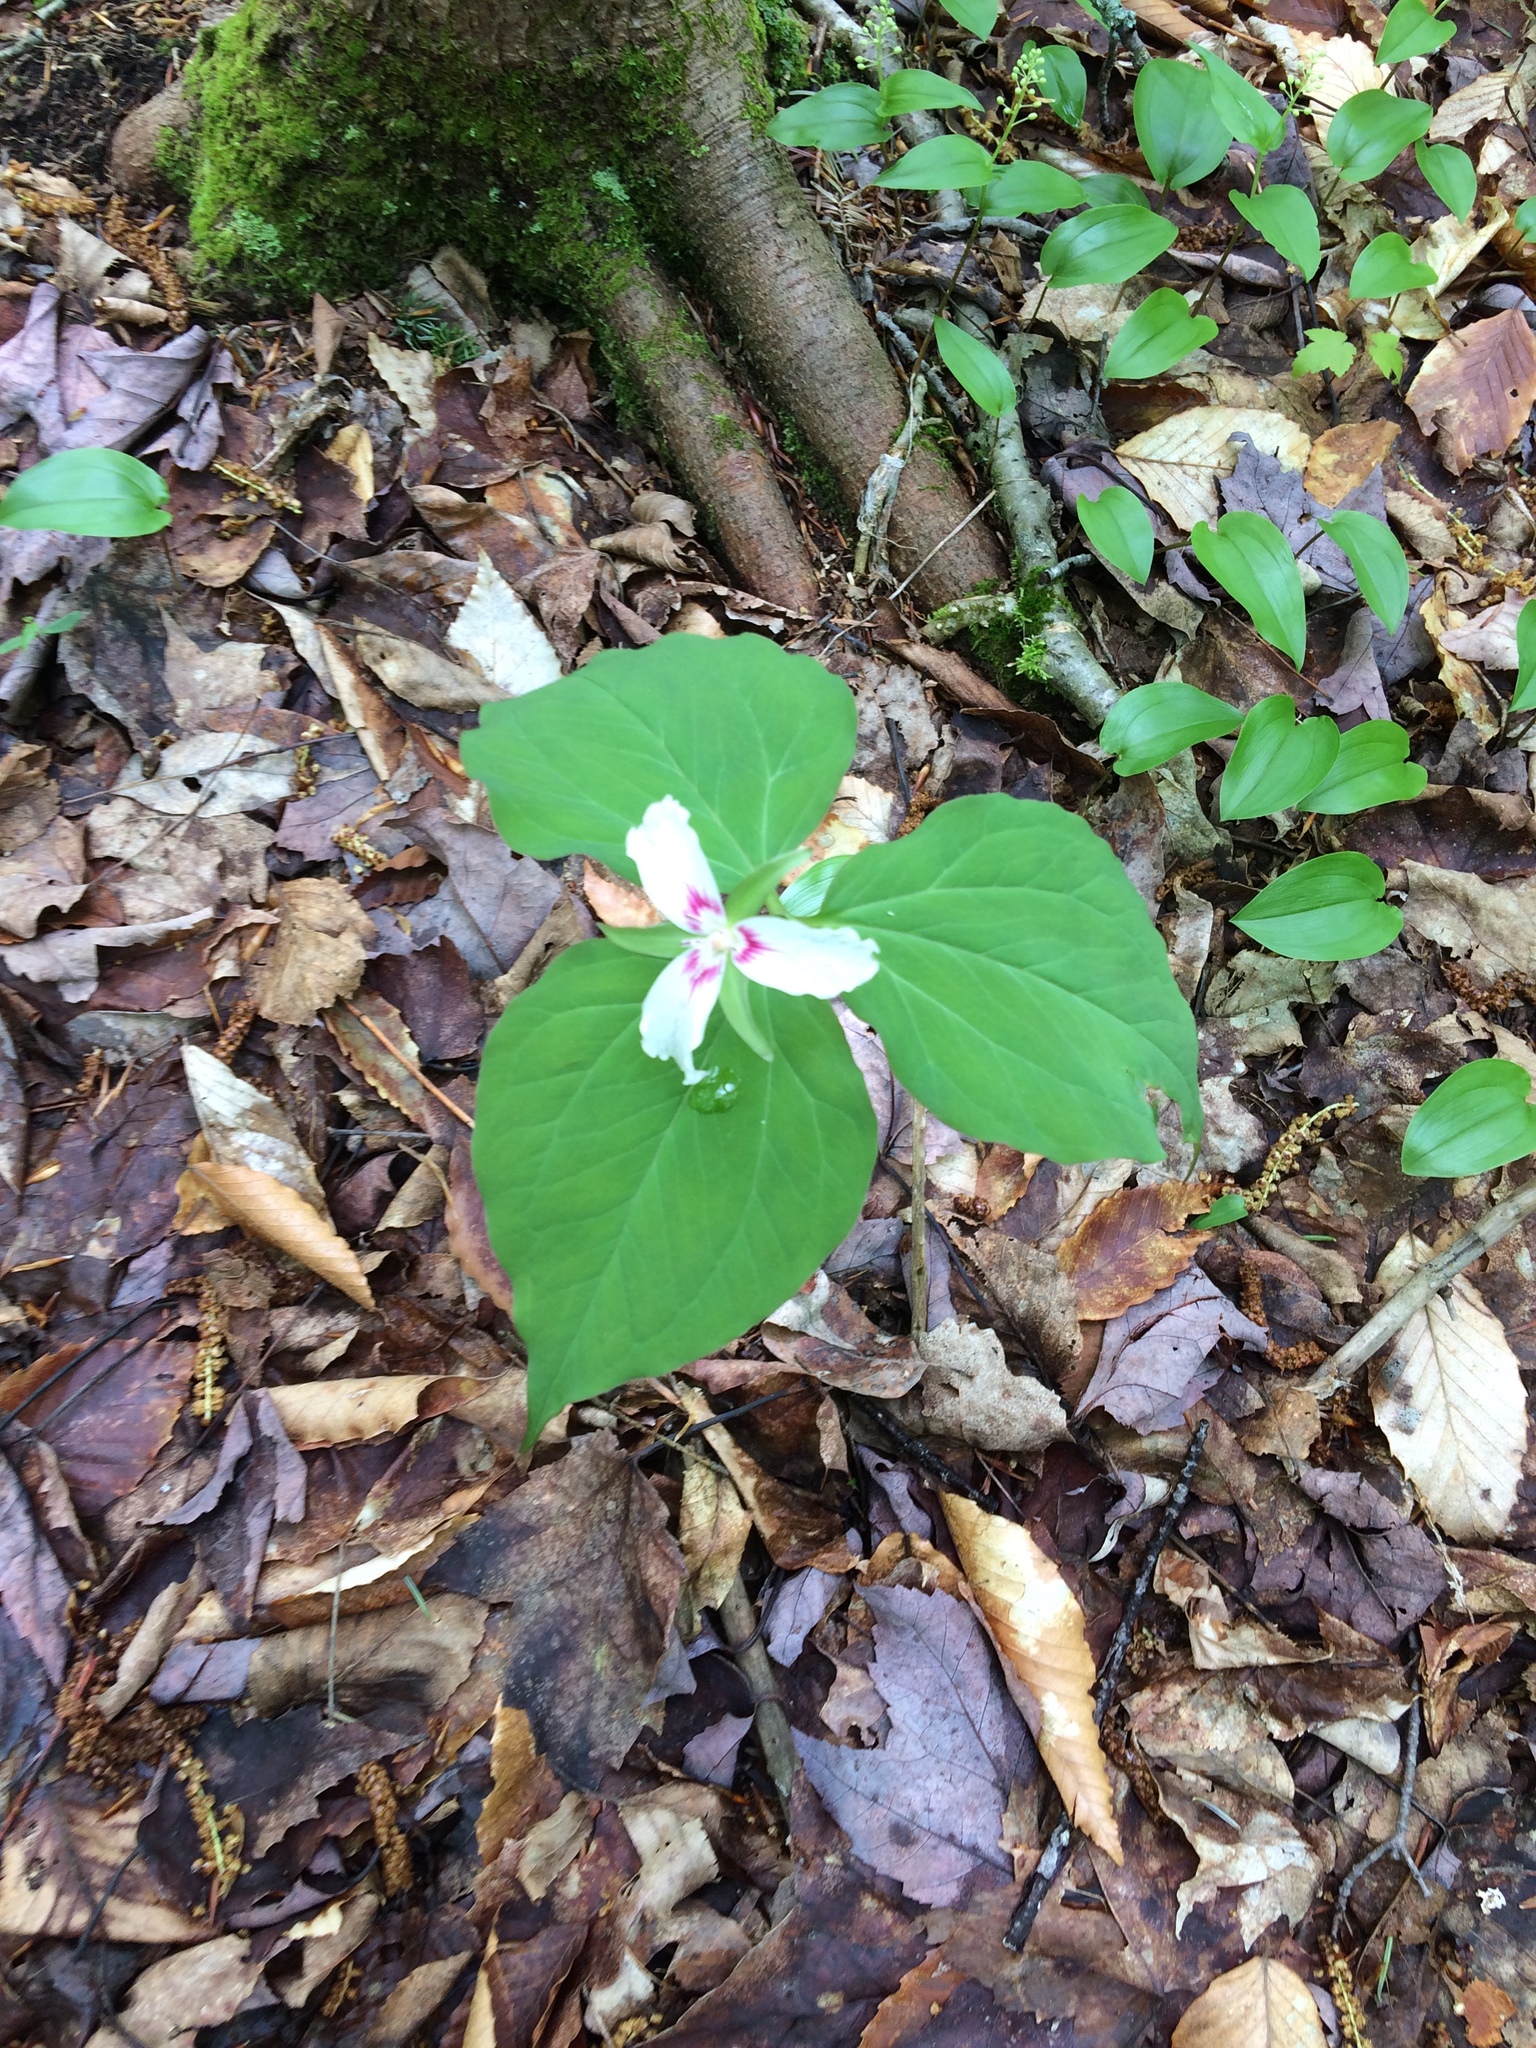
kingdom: Plantae
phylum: Tracheophyta
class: Liliopsida
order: Liliales
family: Melanthiaceae
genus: Trillium
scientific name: Trillium undulatum
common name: Paint trillium
